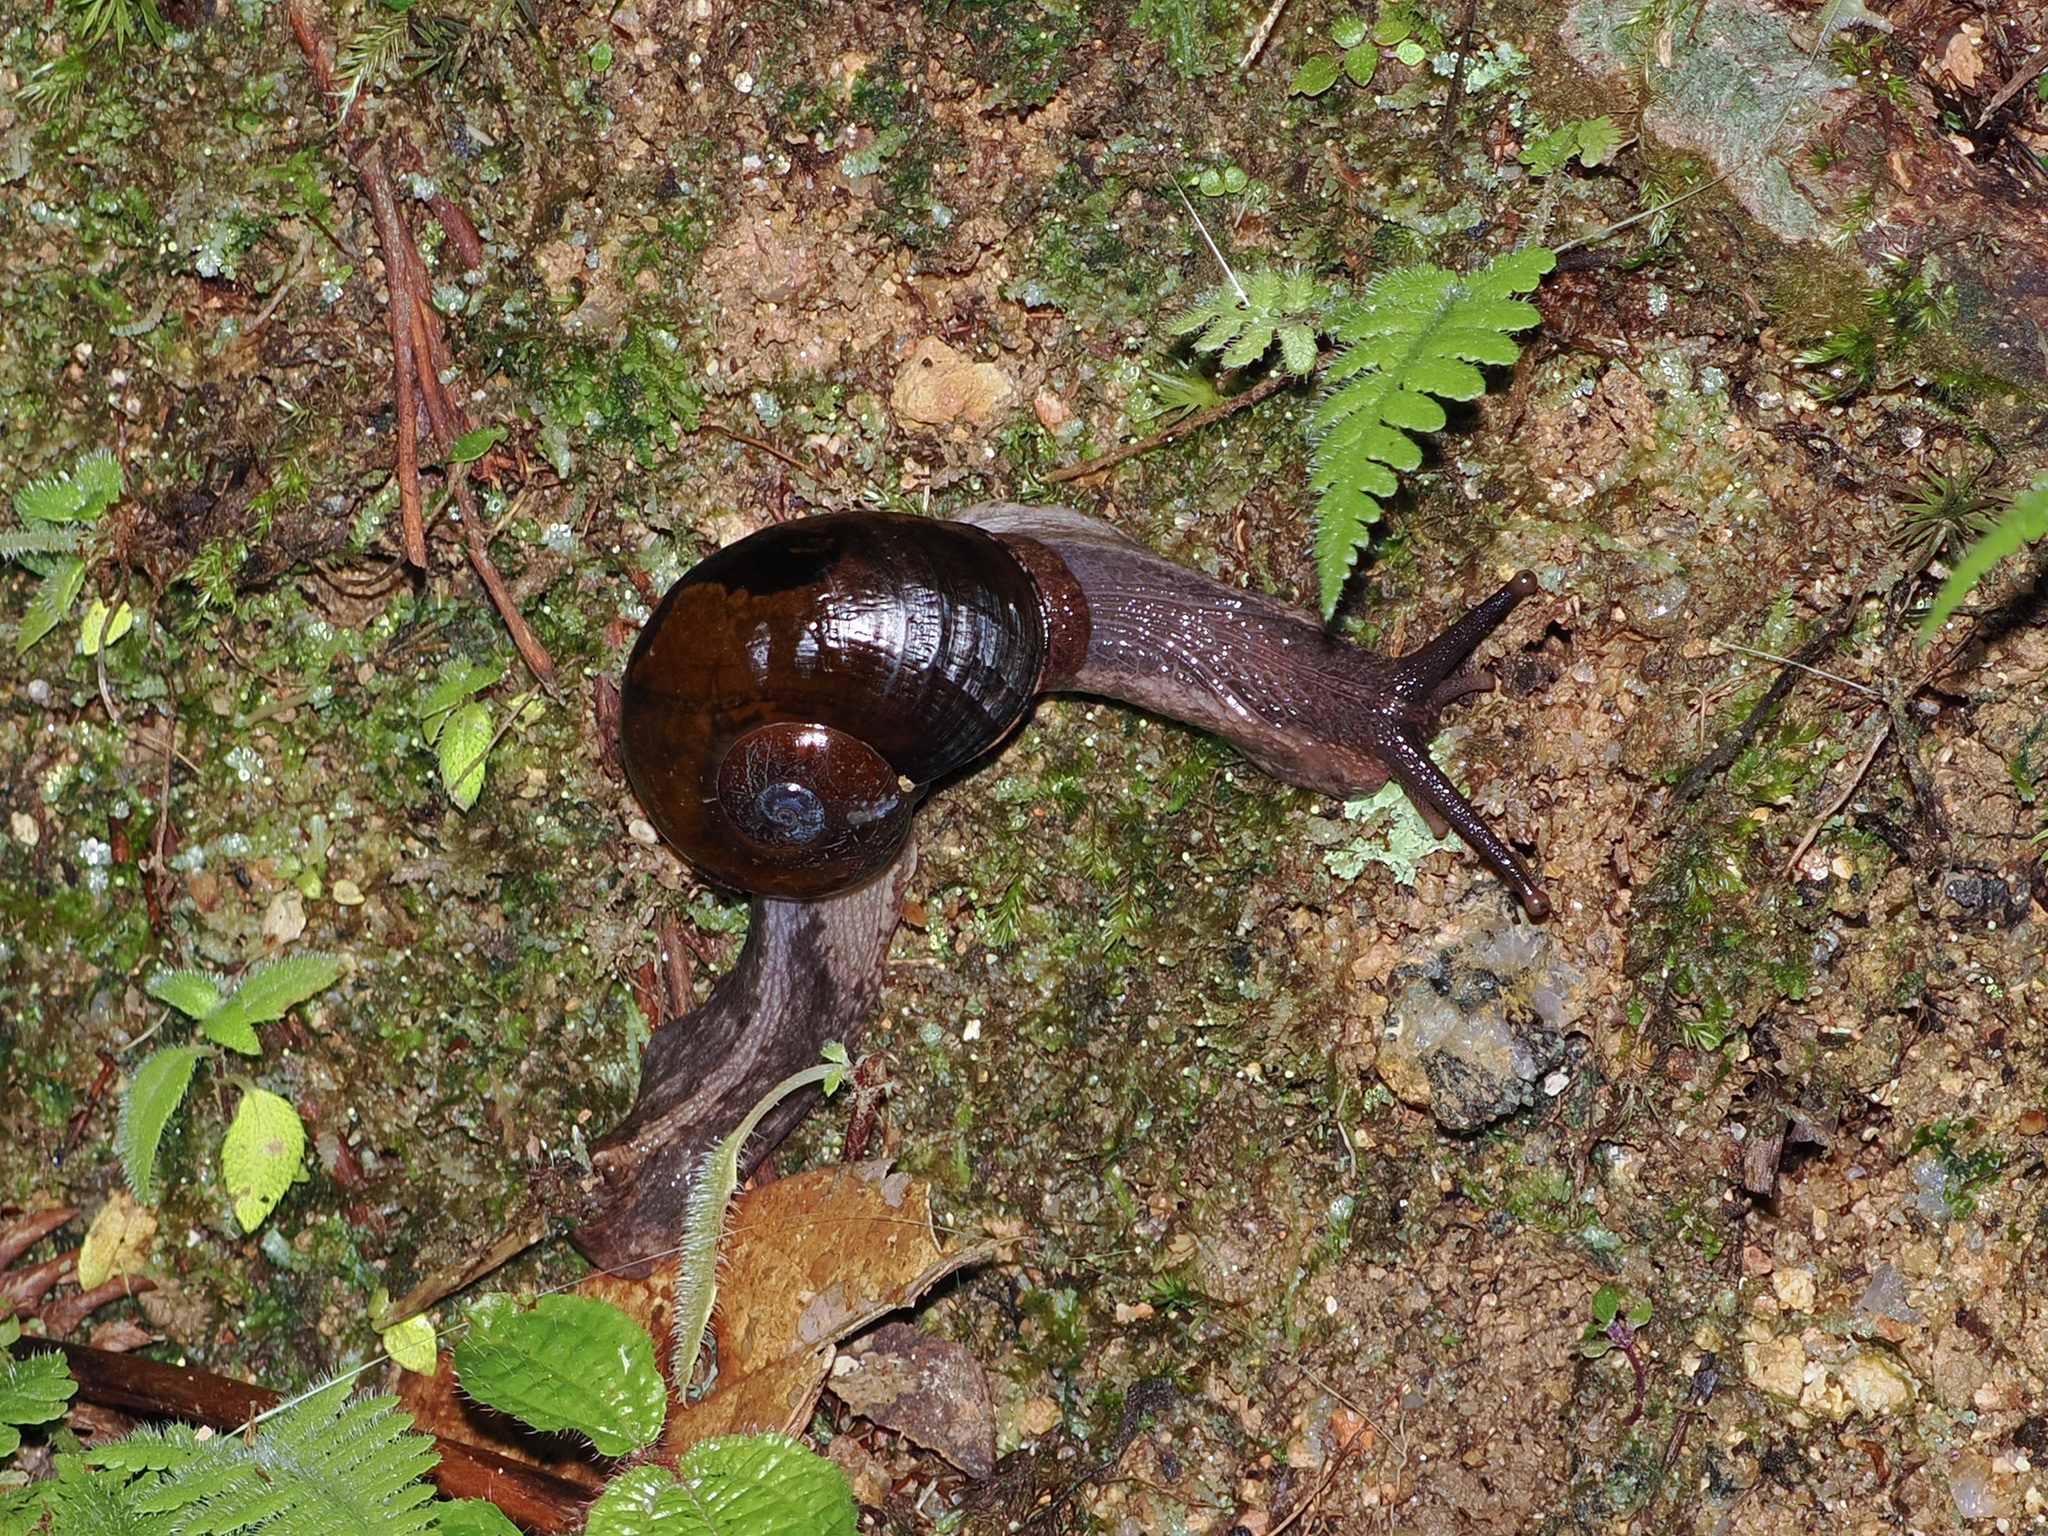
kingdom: Animalia
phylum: Mollusca
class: Gastropoda
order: Stylommatophora
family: Ariophantidae
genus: Baiaplecta
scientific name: Baiaplecta lowi
